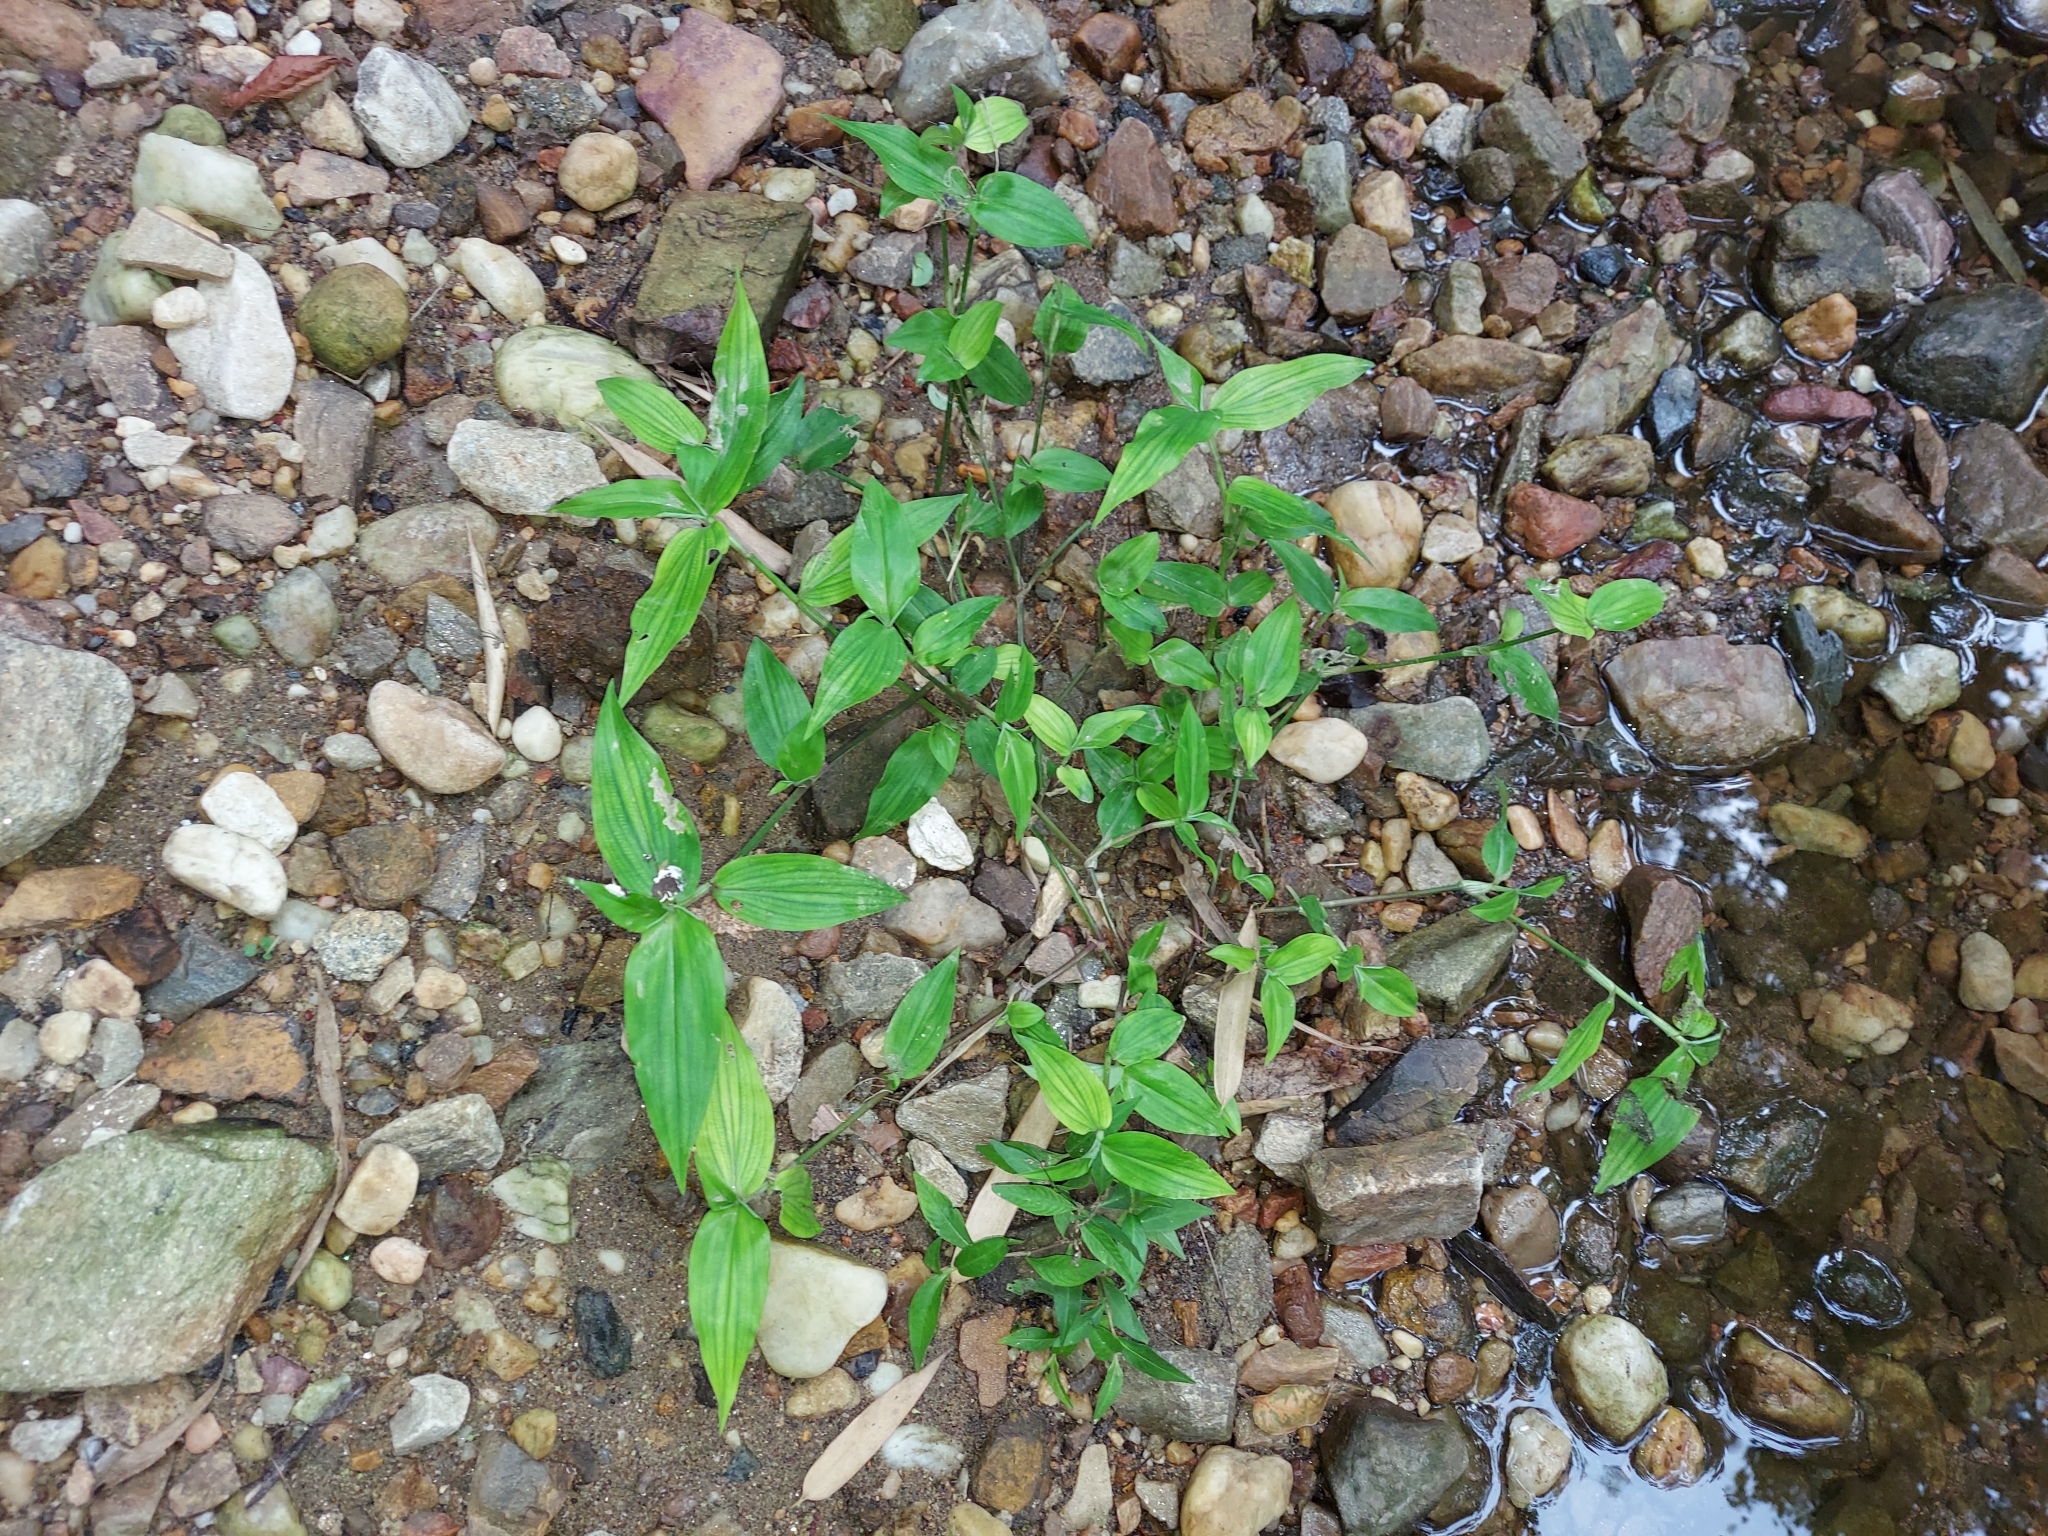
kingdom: Plantae
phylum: Tracheophyta
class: Liliopsida
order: Commelinales
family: Commelinaceae
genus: Commelina
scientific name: Commelina communis
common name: Asiatic dayflower
